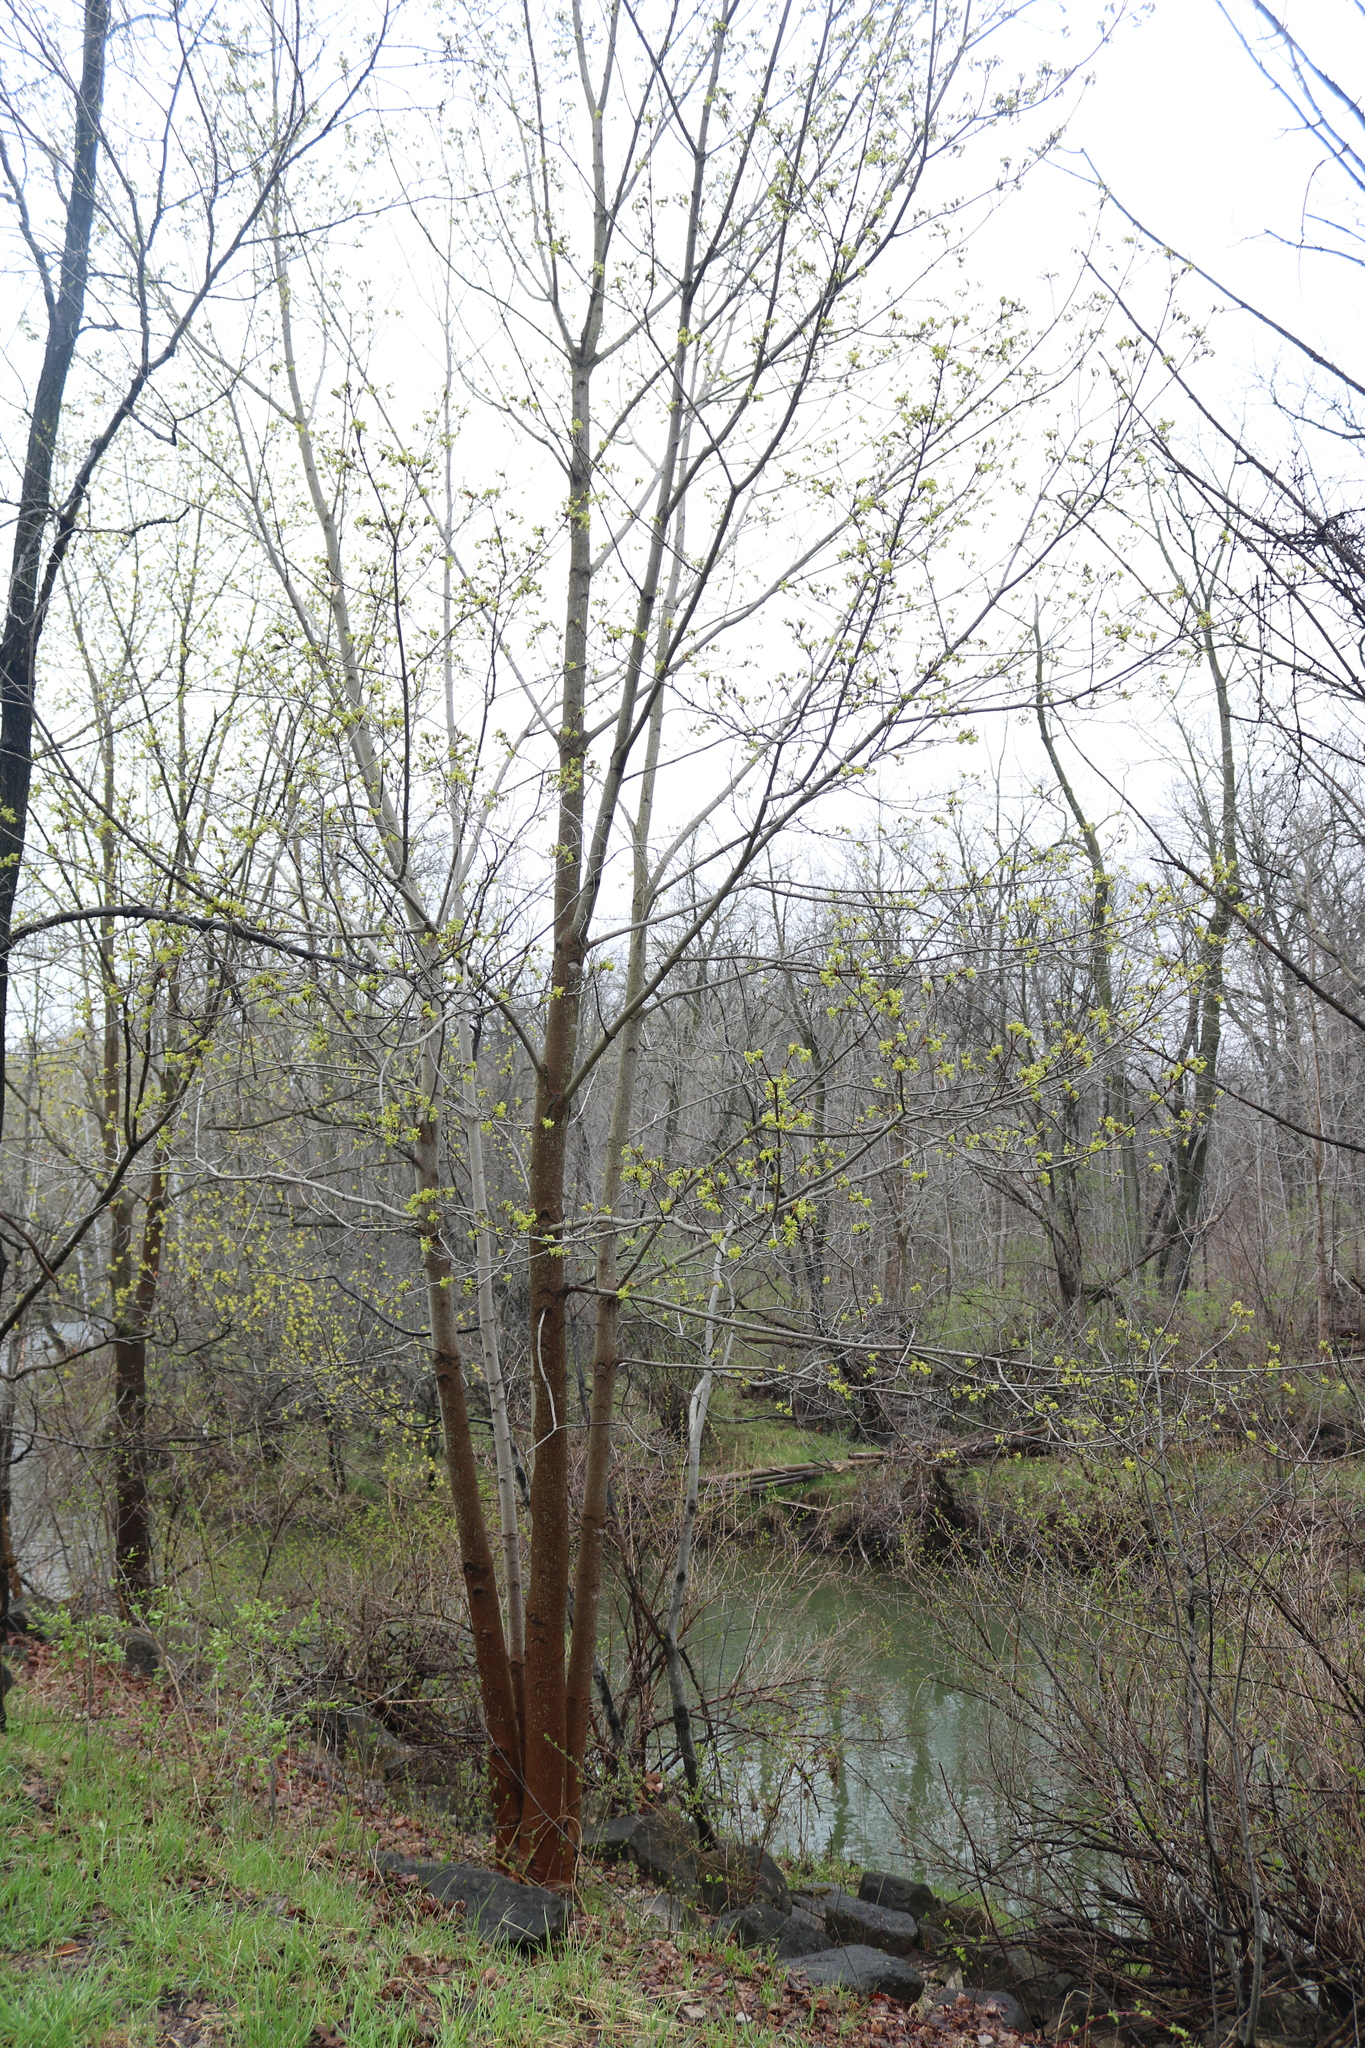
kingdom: Plantae
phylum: Tracheophyta
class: Magnoliopsida
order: Sapindales
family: Sapindaceae
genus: Acer
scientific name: Acer platanoides
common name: Norway maple
